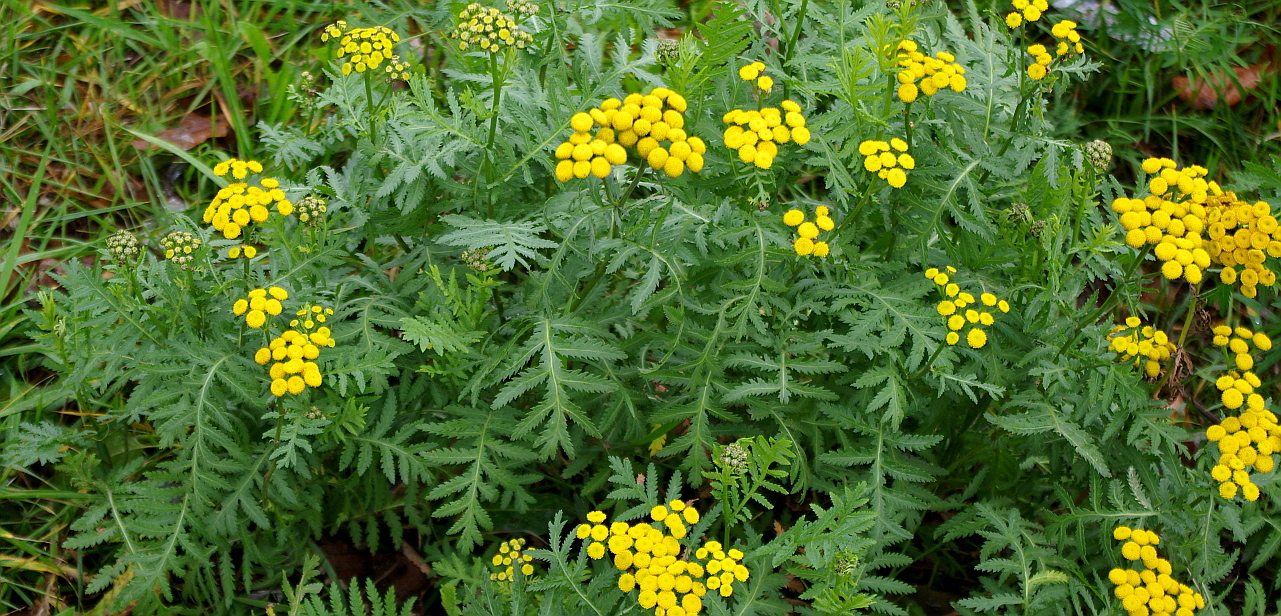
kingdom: Plantae
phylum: Tracheophyta
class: Magnoliopsida
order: Asterales
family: Asteraceae
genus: Tanacetum
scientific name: Tanacetum vulgare
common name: Common tansy
